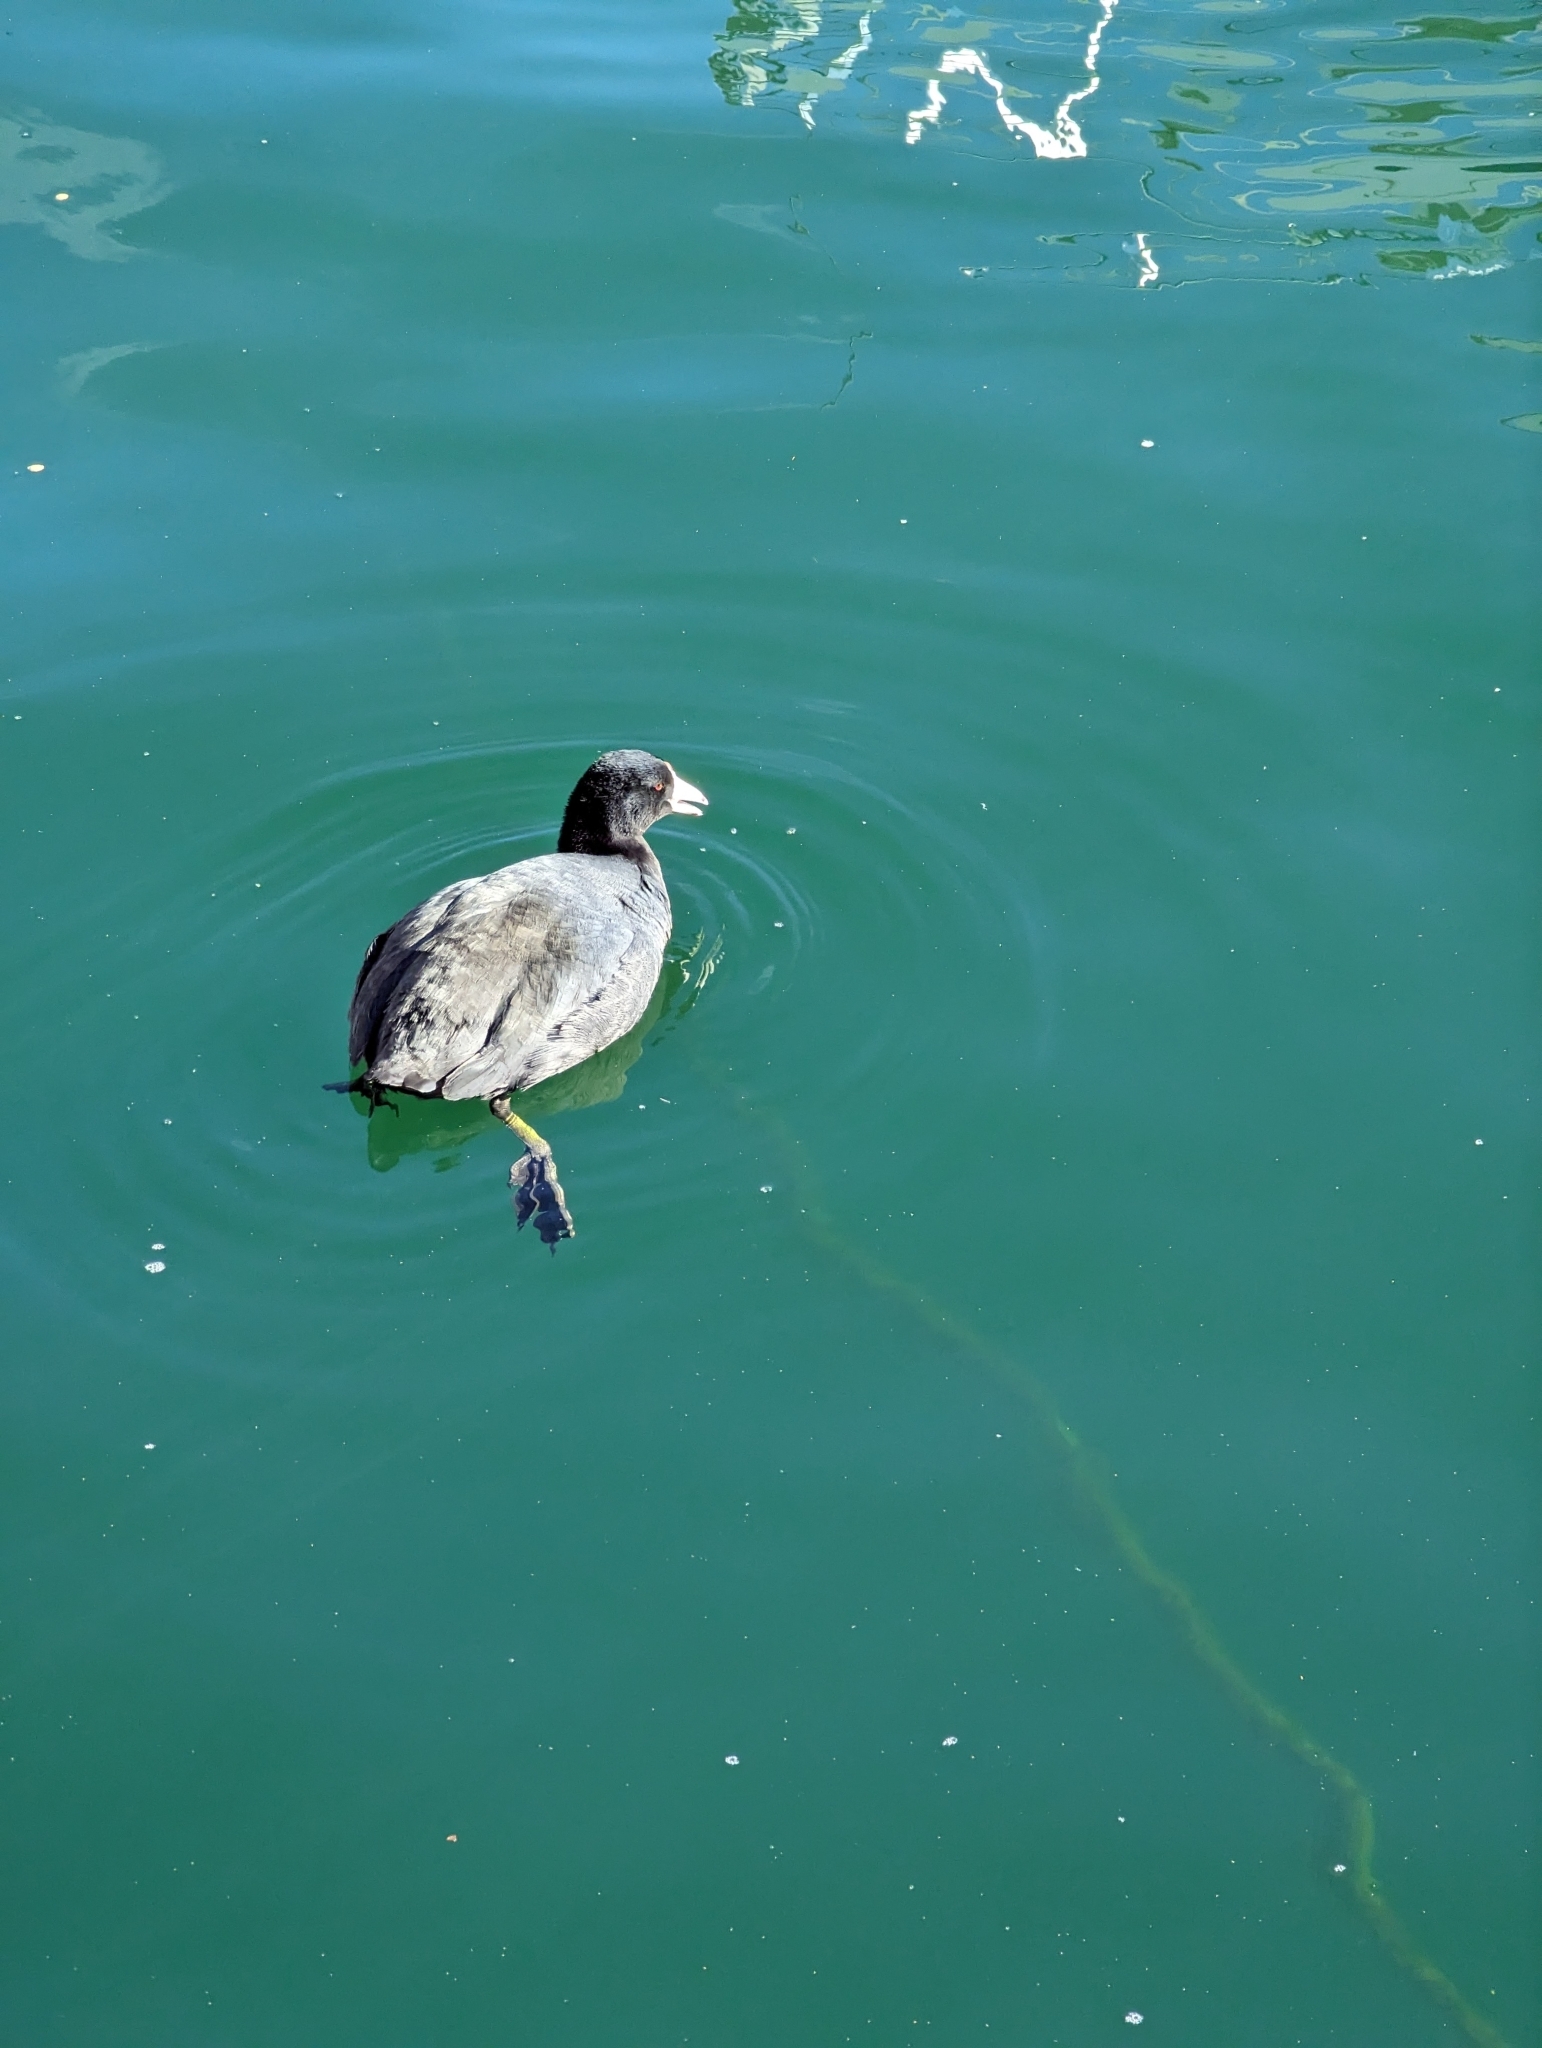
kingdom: Animalia
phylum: Chordata
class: Aves
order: Gruiformes
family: Rallidae
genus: Fulica
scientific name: Fulica americana
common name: American coot
